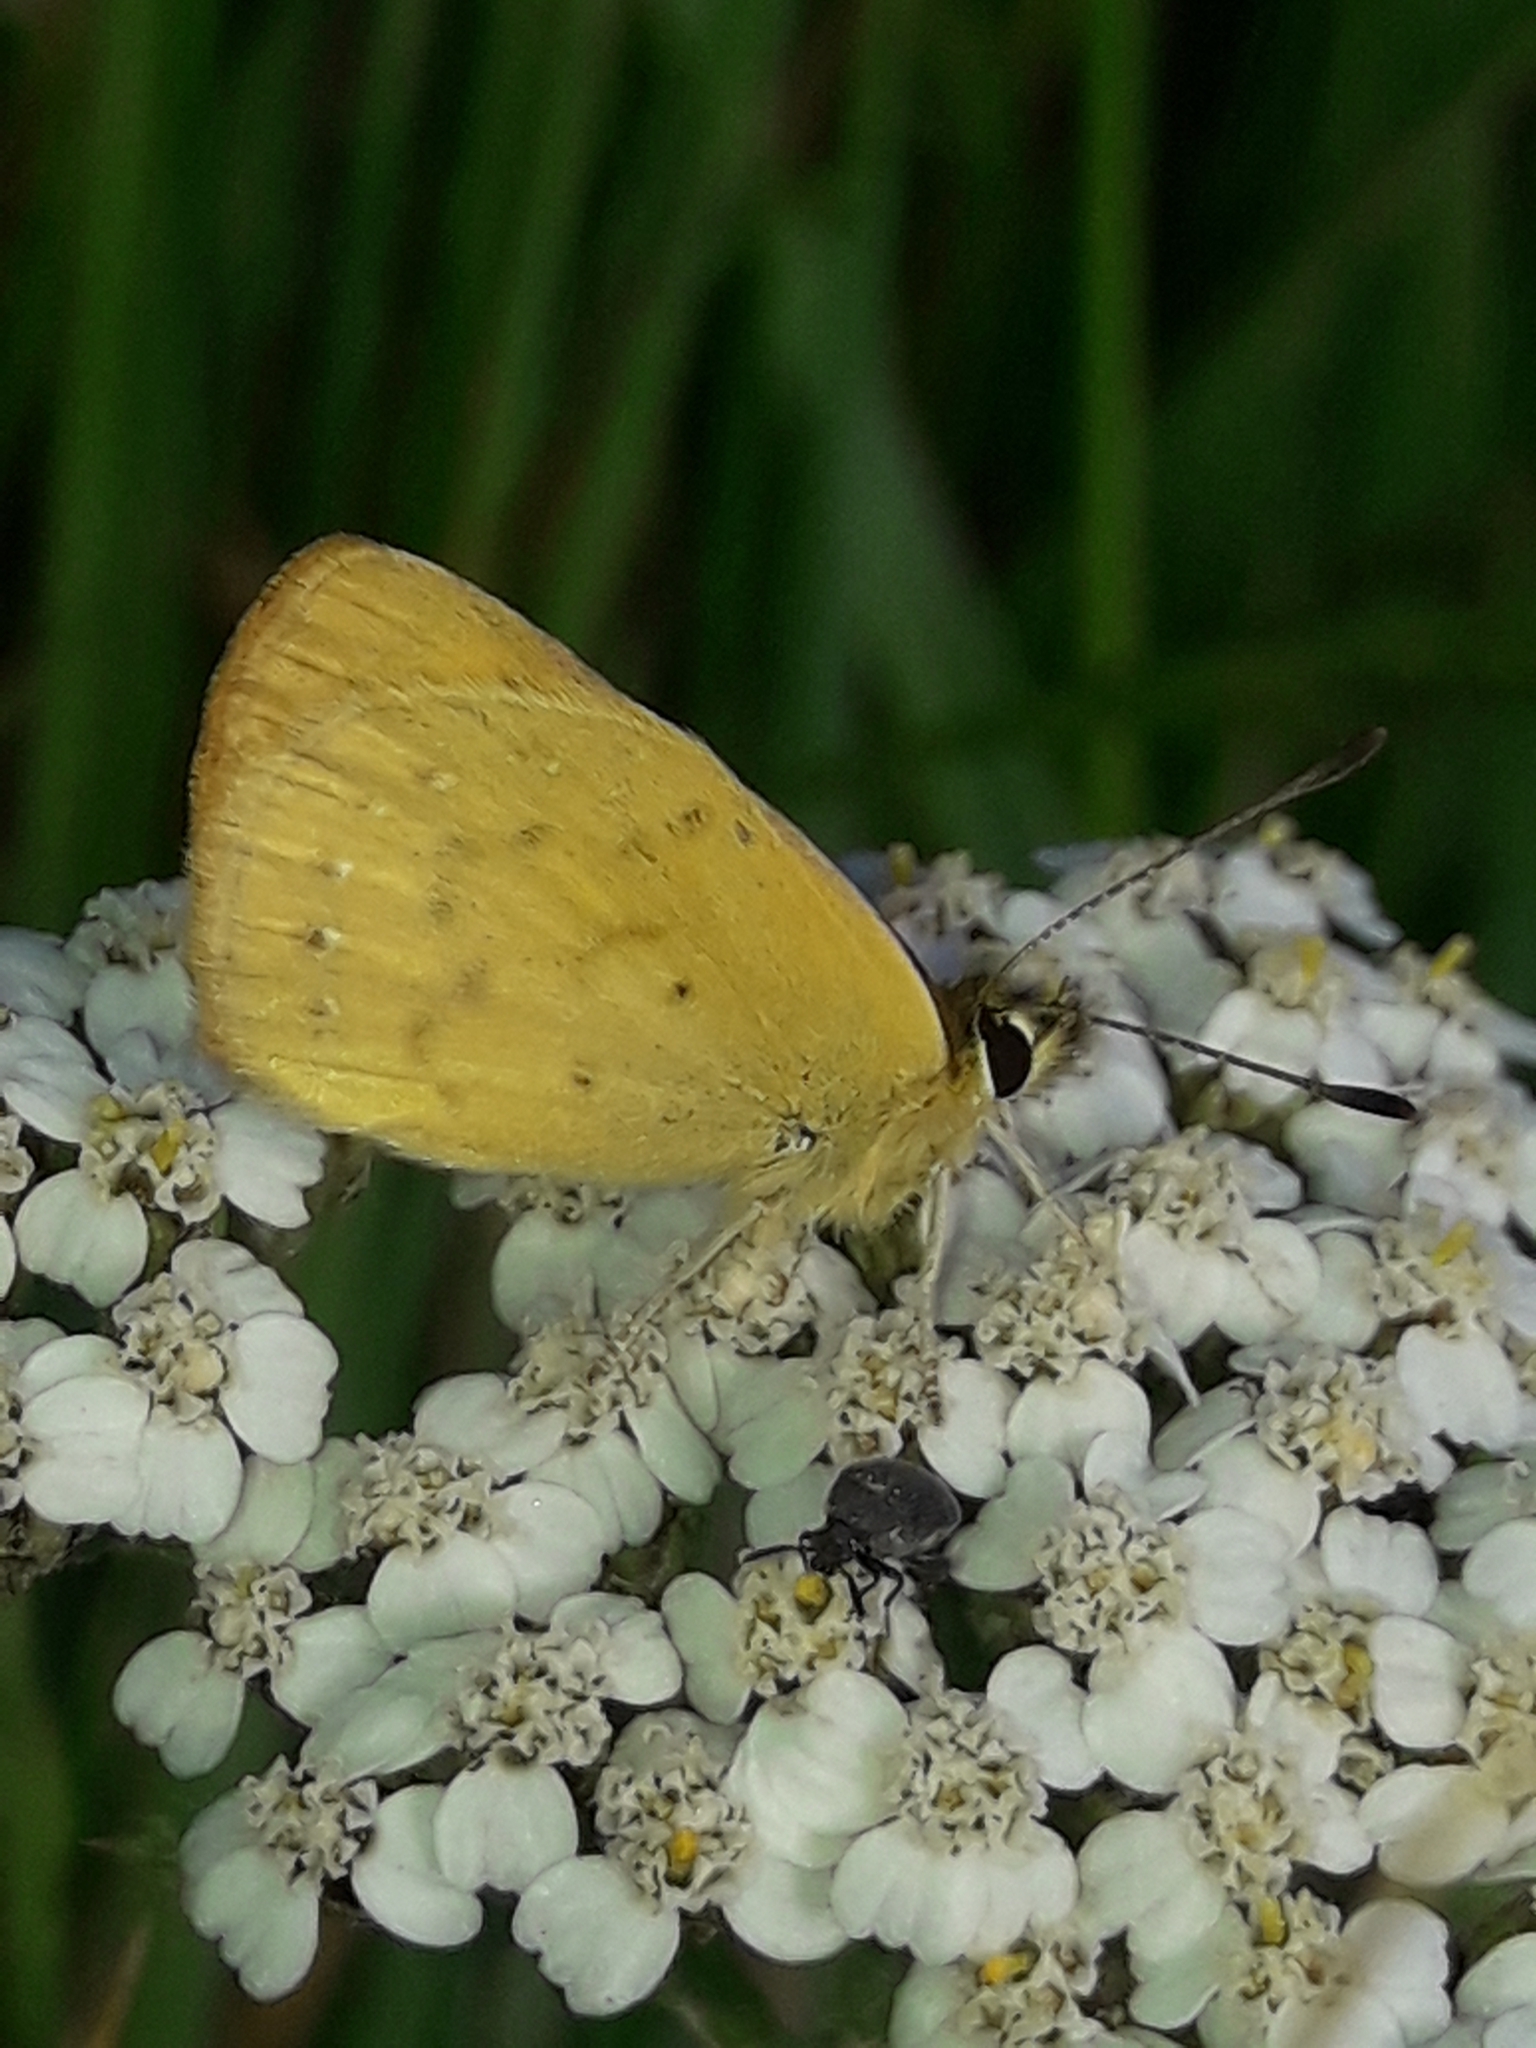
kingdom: Animalia
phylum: Arthropoda
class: Insecta
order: Lepidoptera
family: Lycaenidae
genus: Lycaena
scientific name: Lycaena
